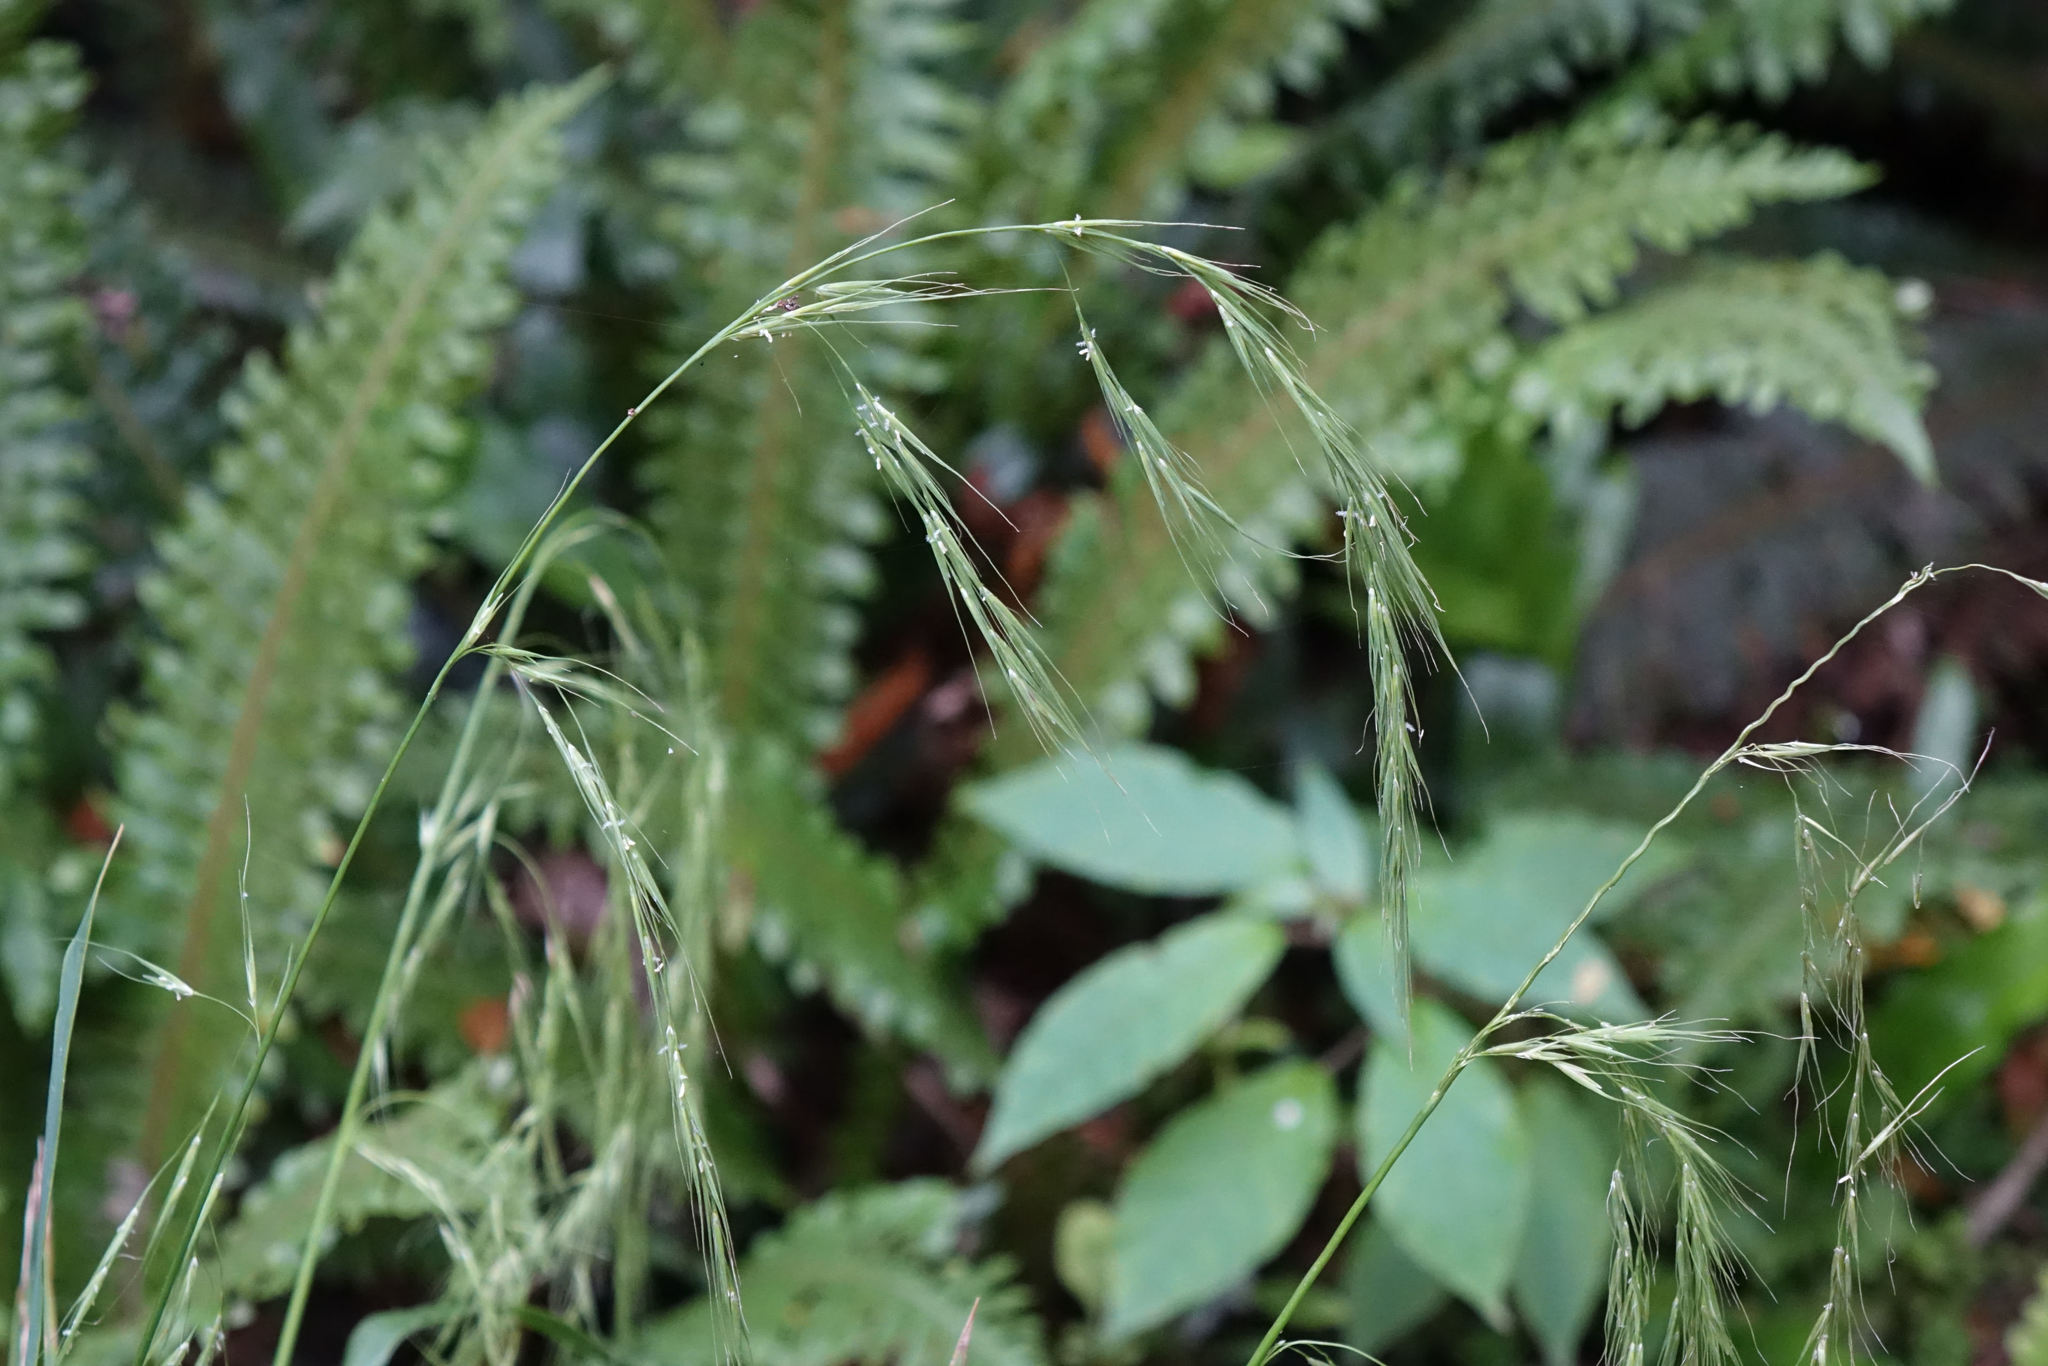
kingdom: Plantae
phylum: Tracheophyta
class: Liliopsida
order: Poales
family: Poaceae
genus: Ehrharta
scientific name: Ehrharta diplax
